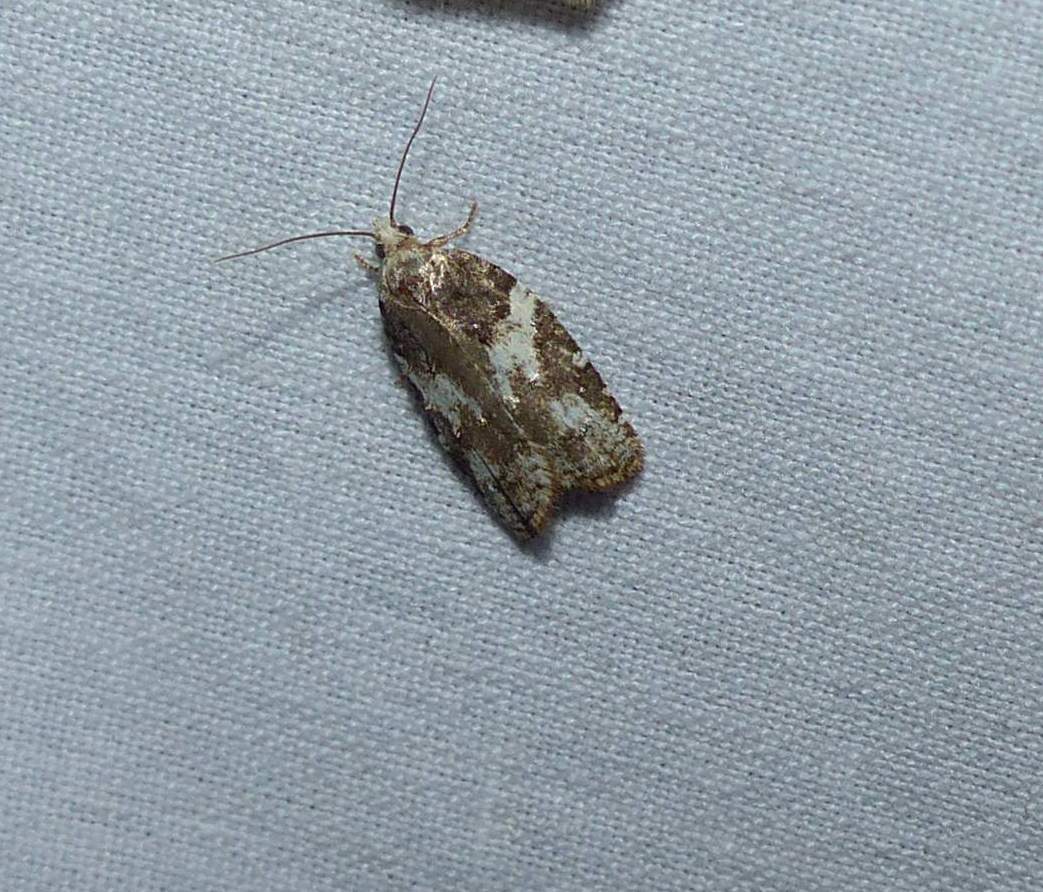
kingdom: Animalia
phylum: Arthropoda
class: Insecta
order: Lepidoptera
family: Tortricidae
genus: Acleris
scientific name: Acleris variana
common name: Eastern black-headed budworm moth
